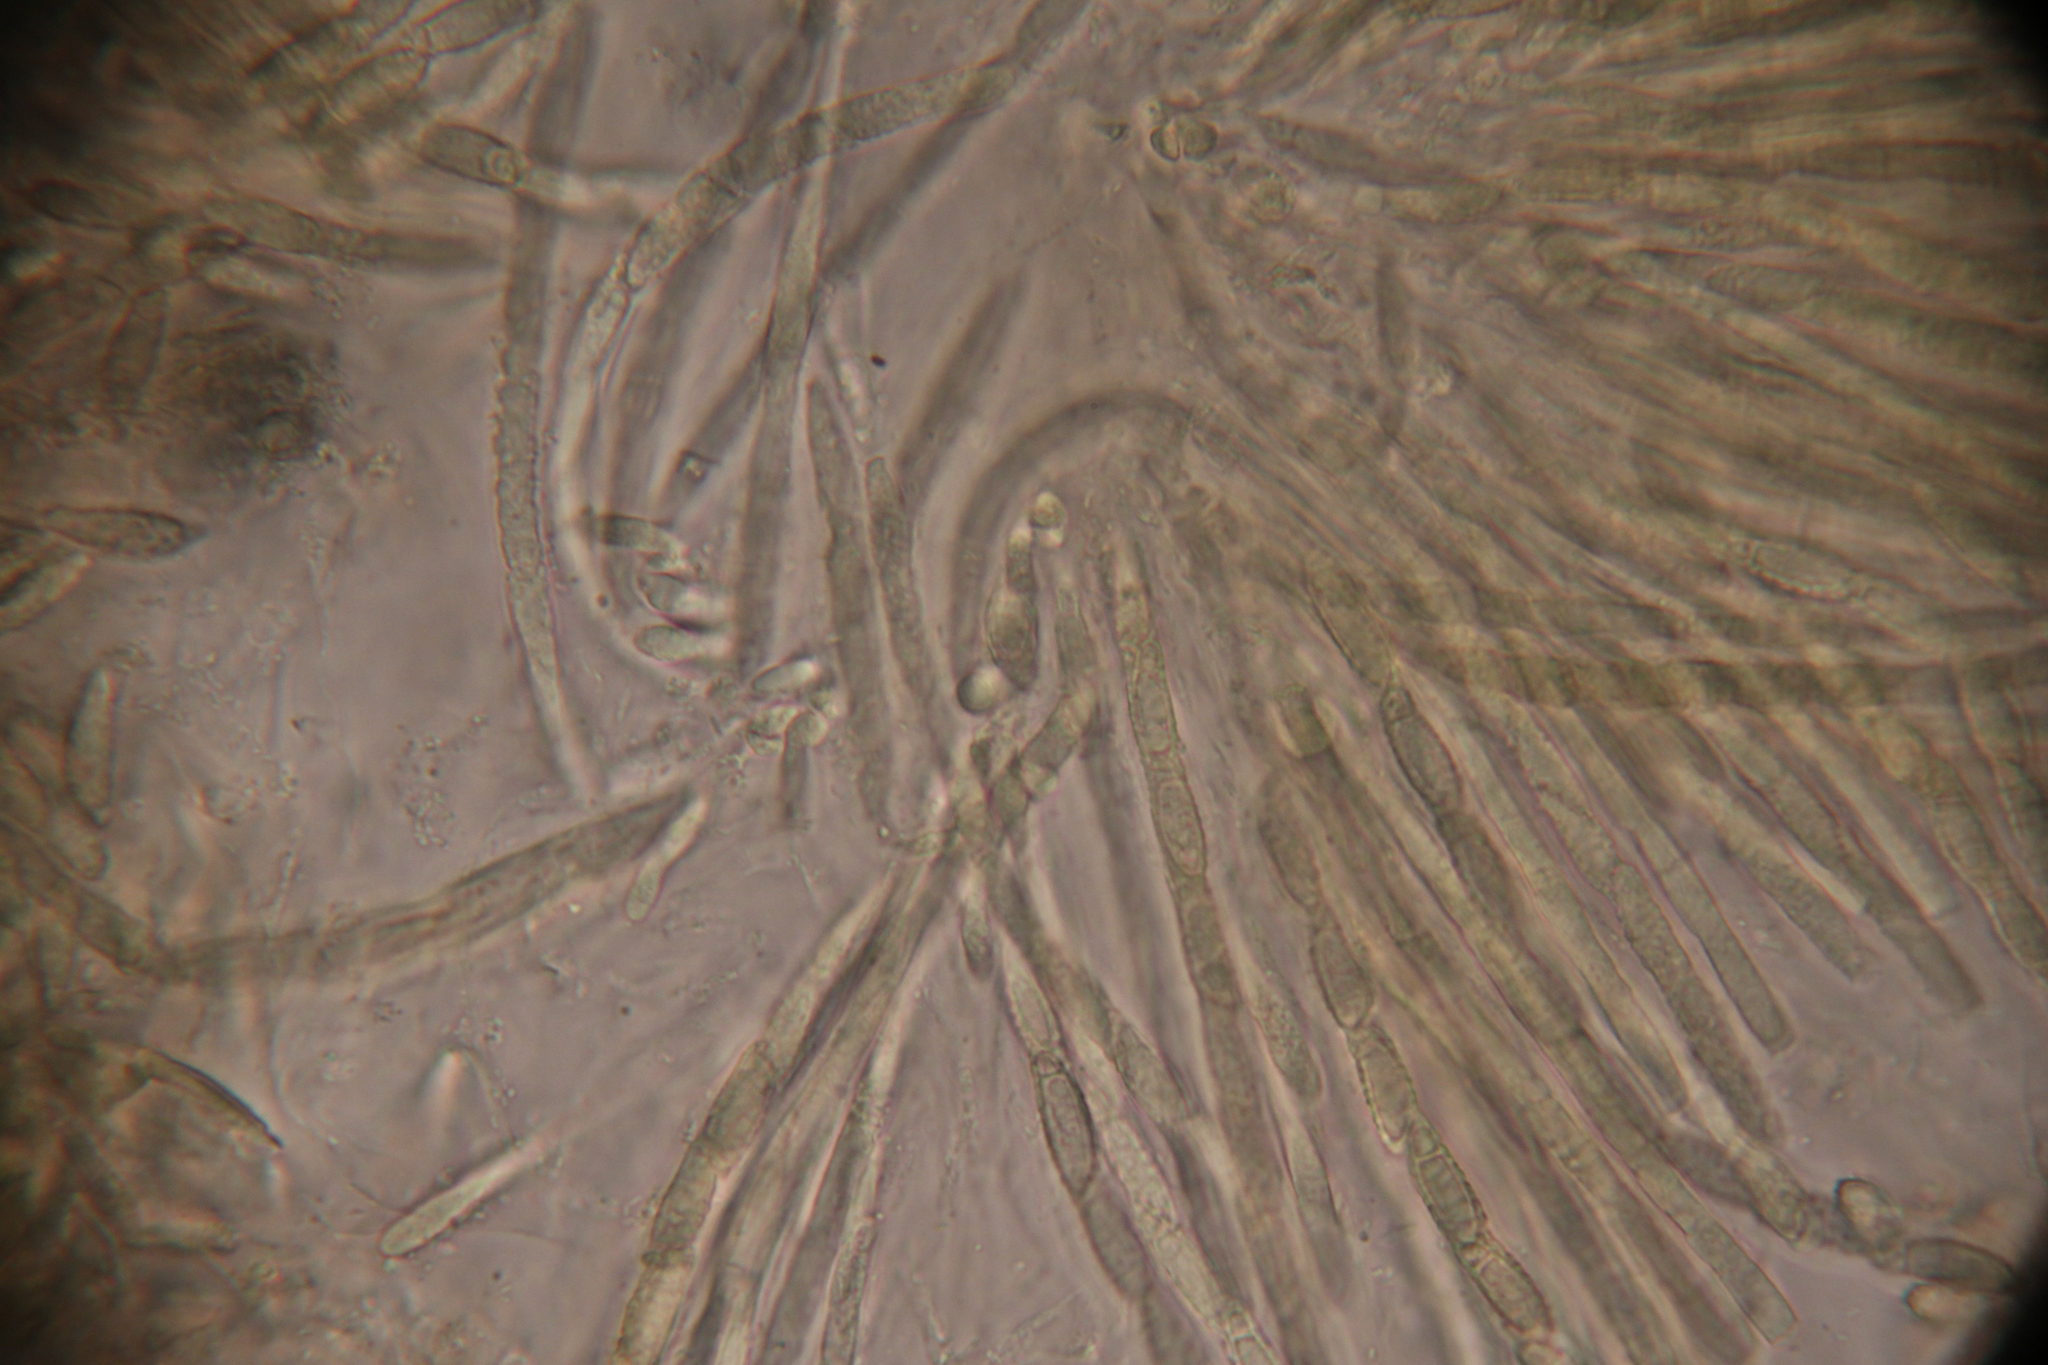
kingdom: Fungi
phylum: Ascomycota
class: Sordariomycetes
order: Hypocreales
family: Hypocreaceae
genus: Hypomyces
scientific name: Hypomyces hyalinus
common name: Amanita mold
